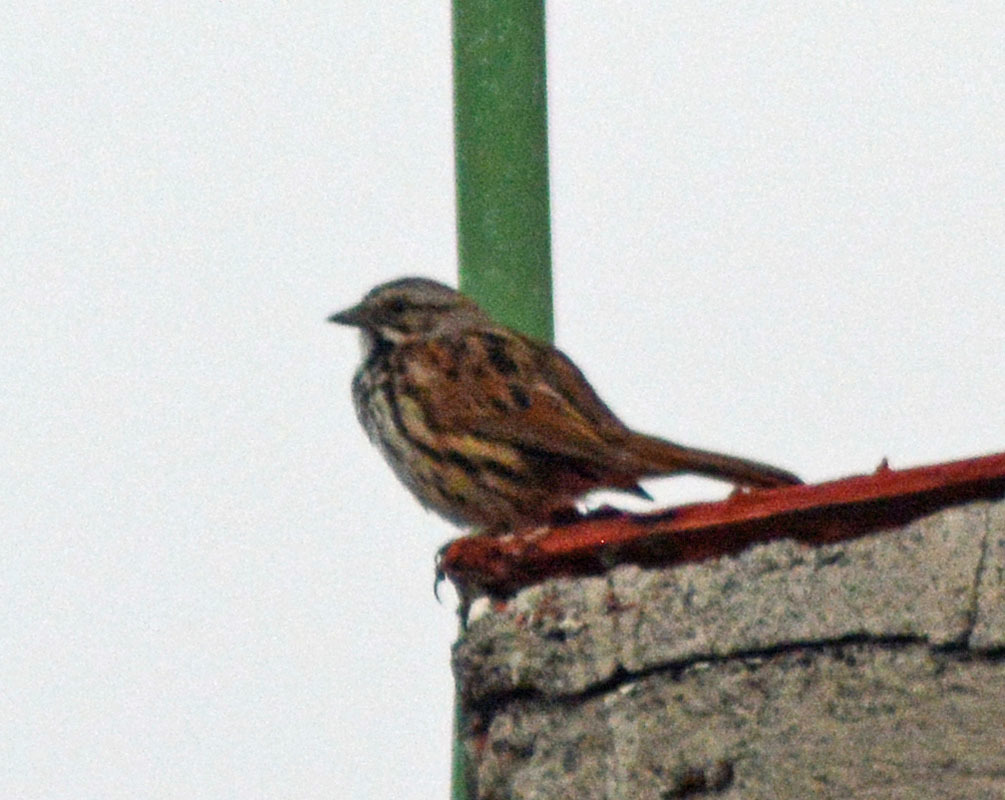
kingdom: Animalia
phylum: Chordata
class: Aves
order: Passeriformes
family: Passerellidae
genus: Melospiza
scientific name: Melospiza melodia
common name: Song sparrow
